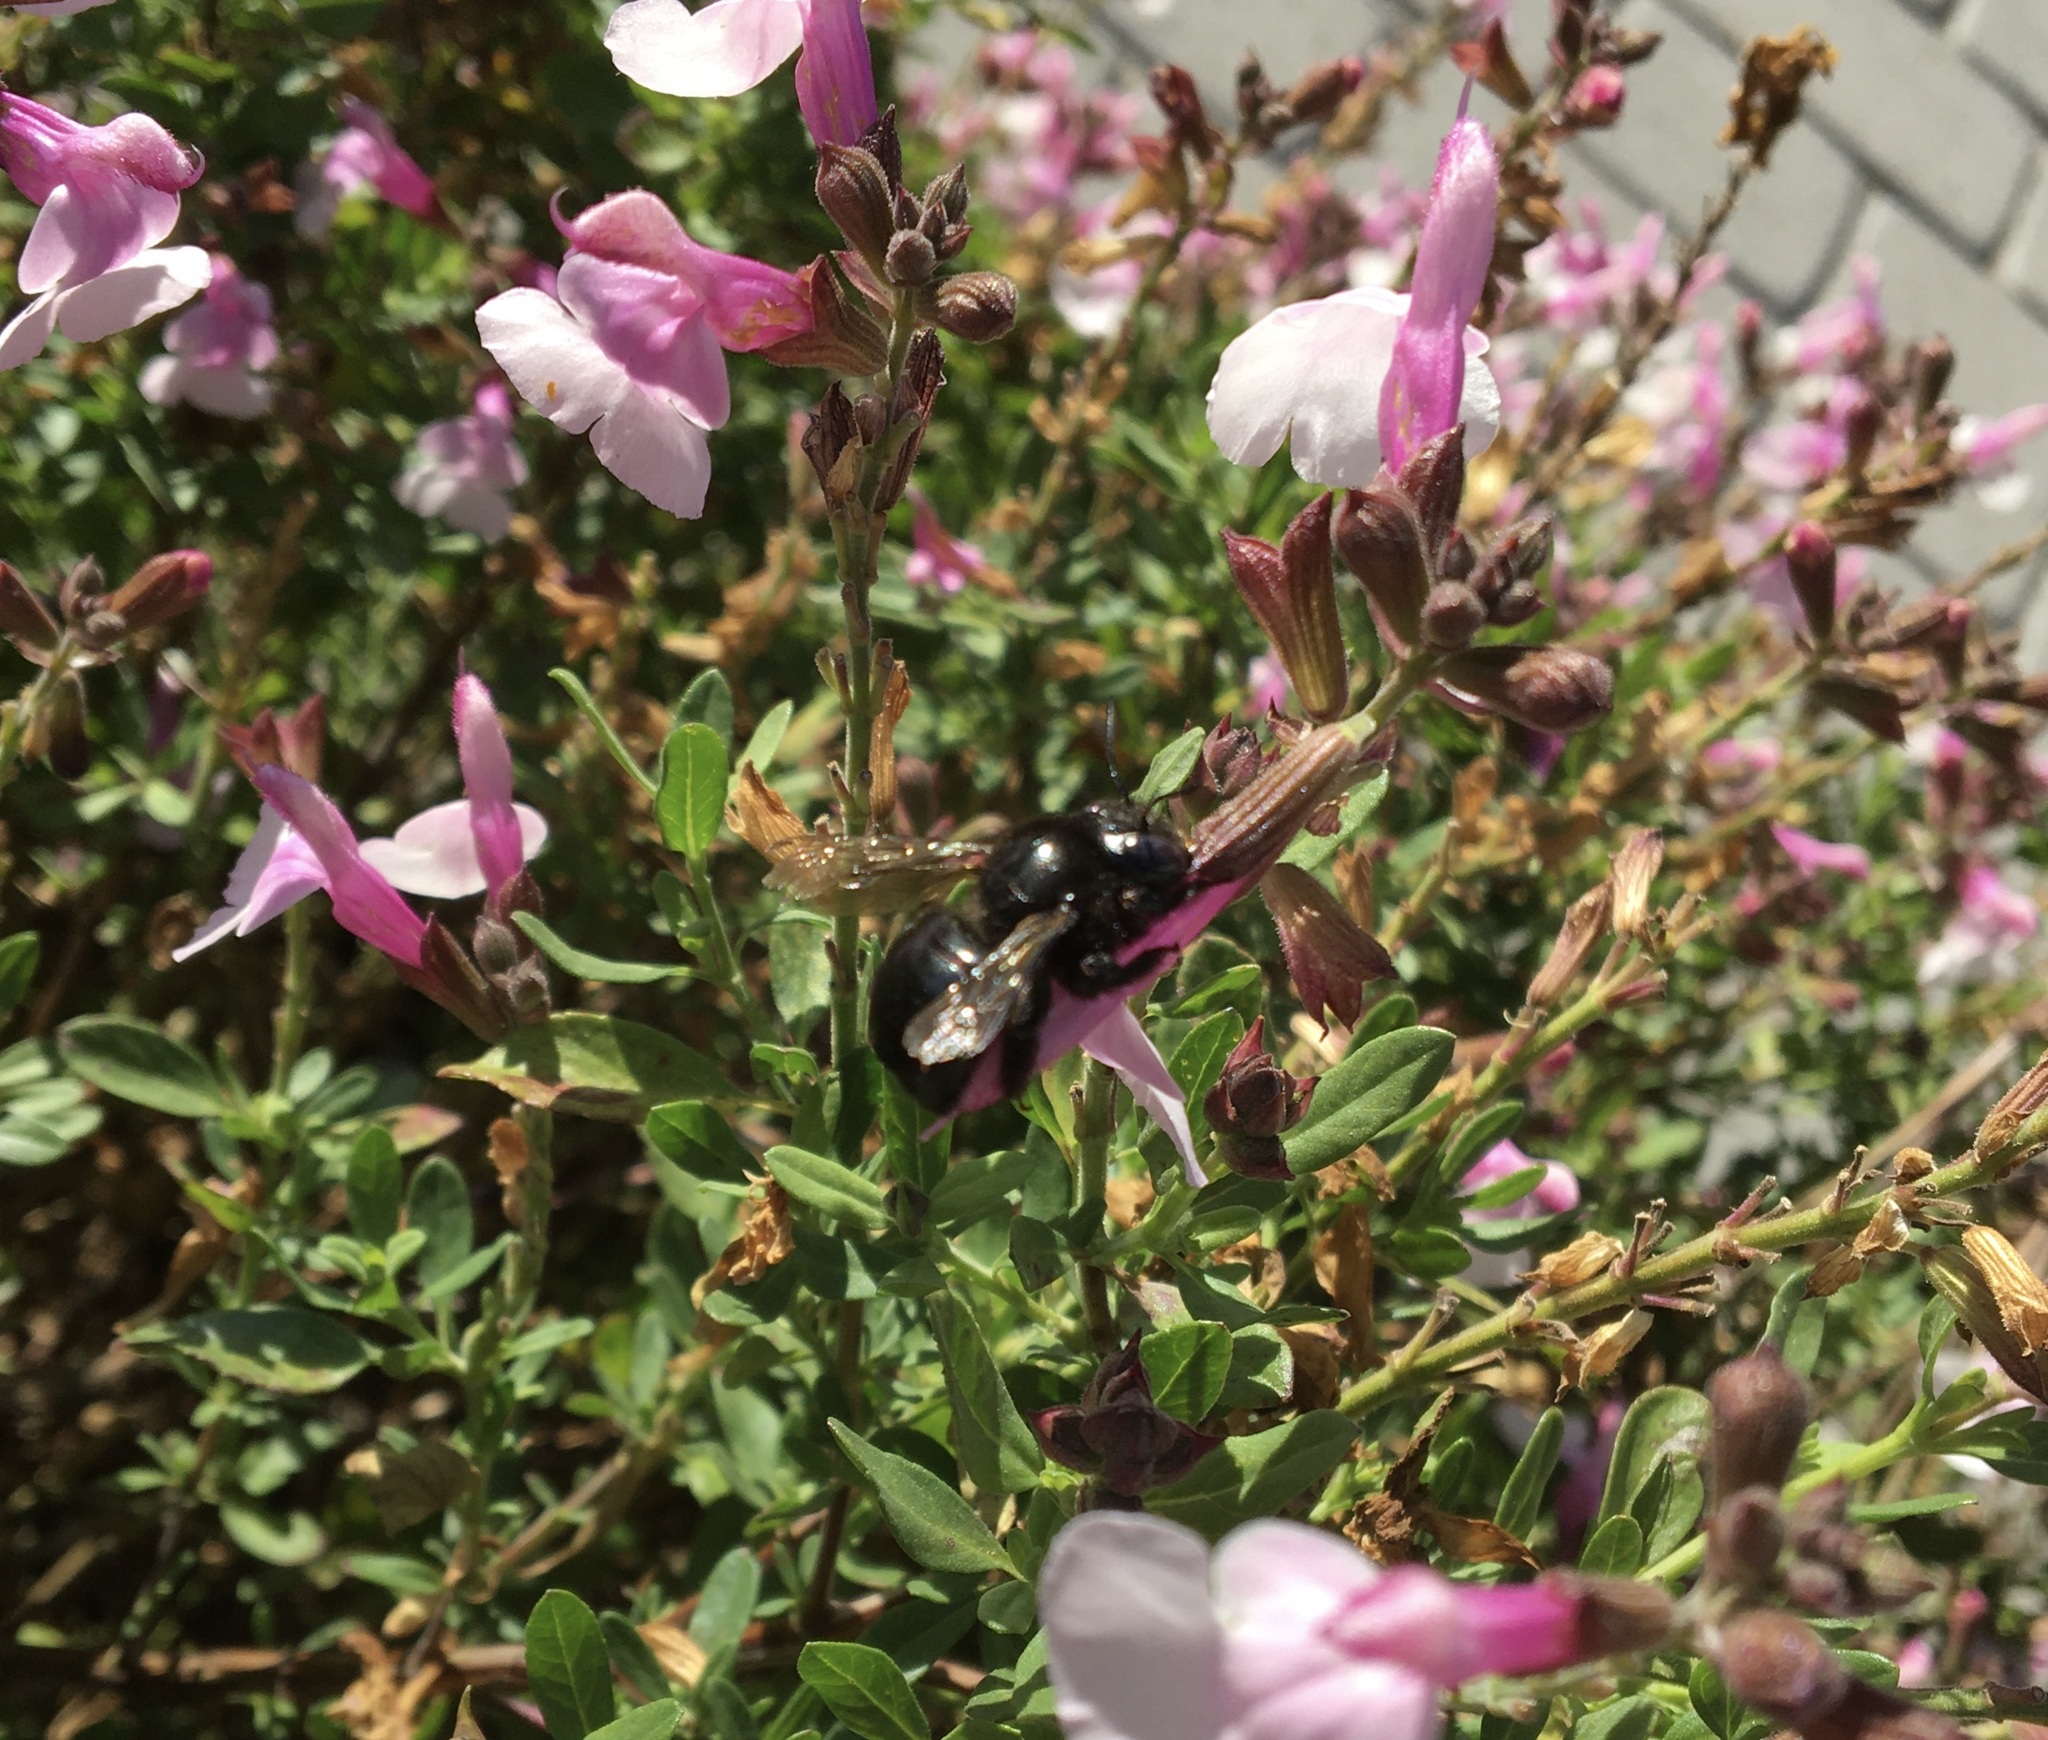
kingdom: Animalia
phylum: Arthropoda
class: Insecta
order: Hymenoptera
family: Apidae
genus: Xylocopa
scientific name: Xylocopa tabaniformis
